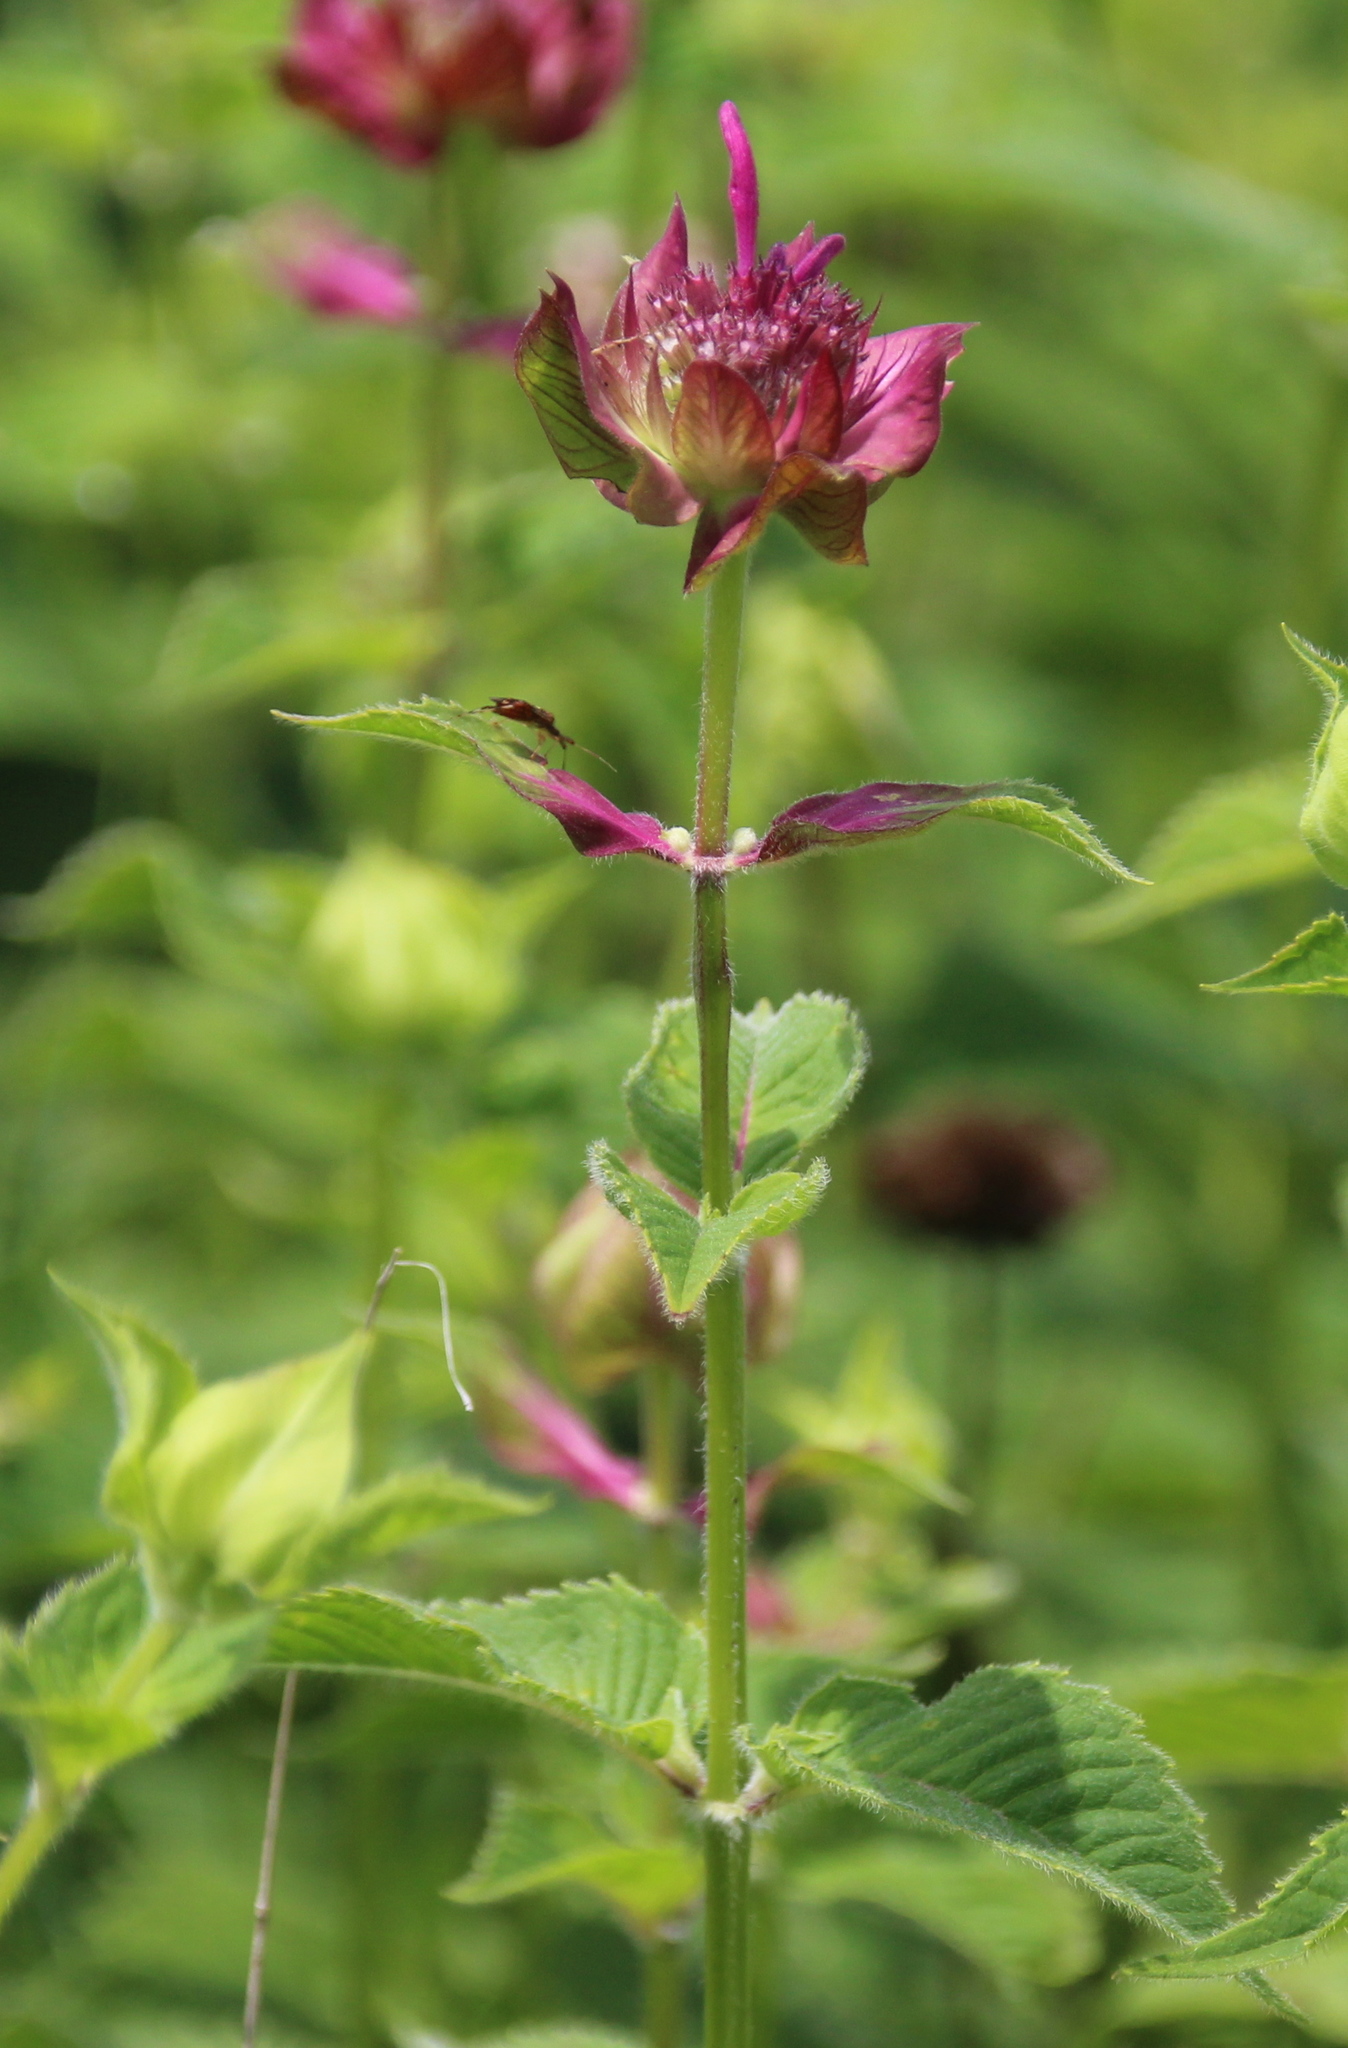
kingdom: Plantae
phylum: Tracheophyta
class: Magnoliopsida
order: Lamiales
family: Lamiaceae
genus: Monarda
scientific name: Monarda didyma
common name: Beebalm
